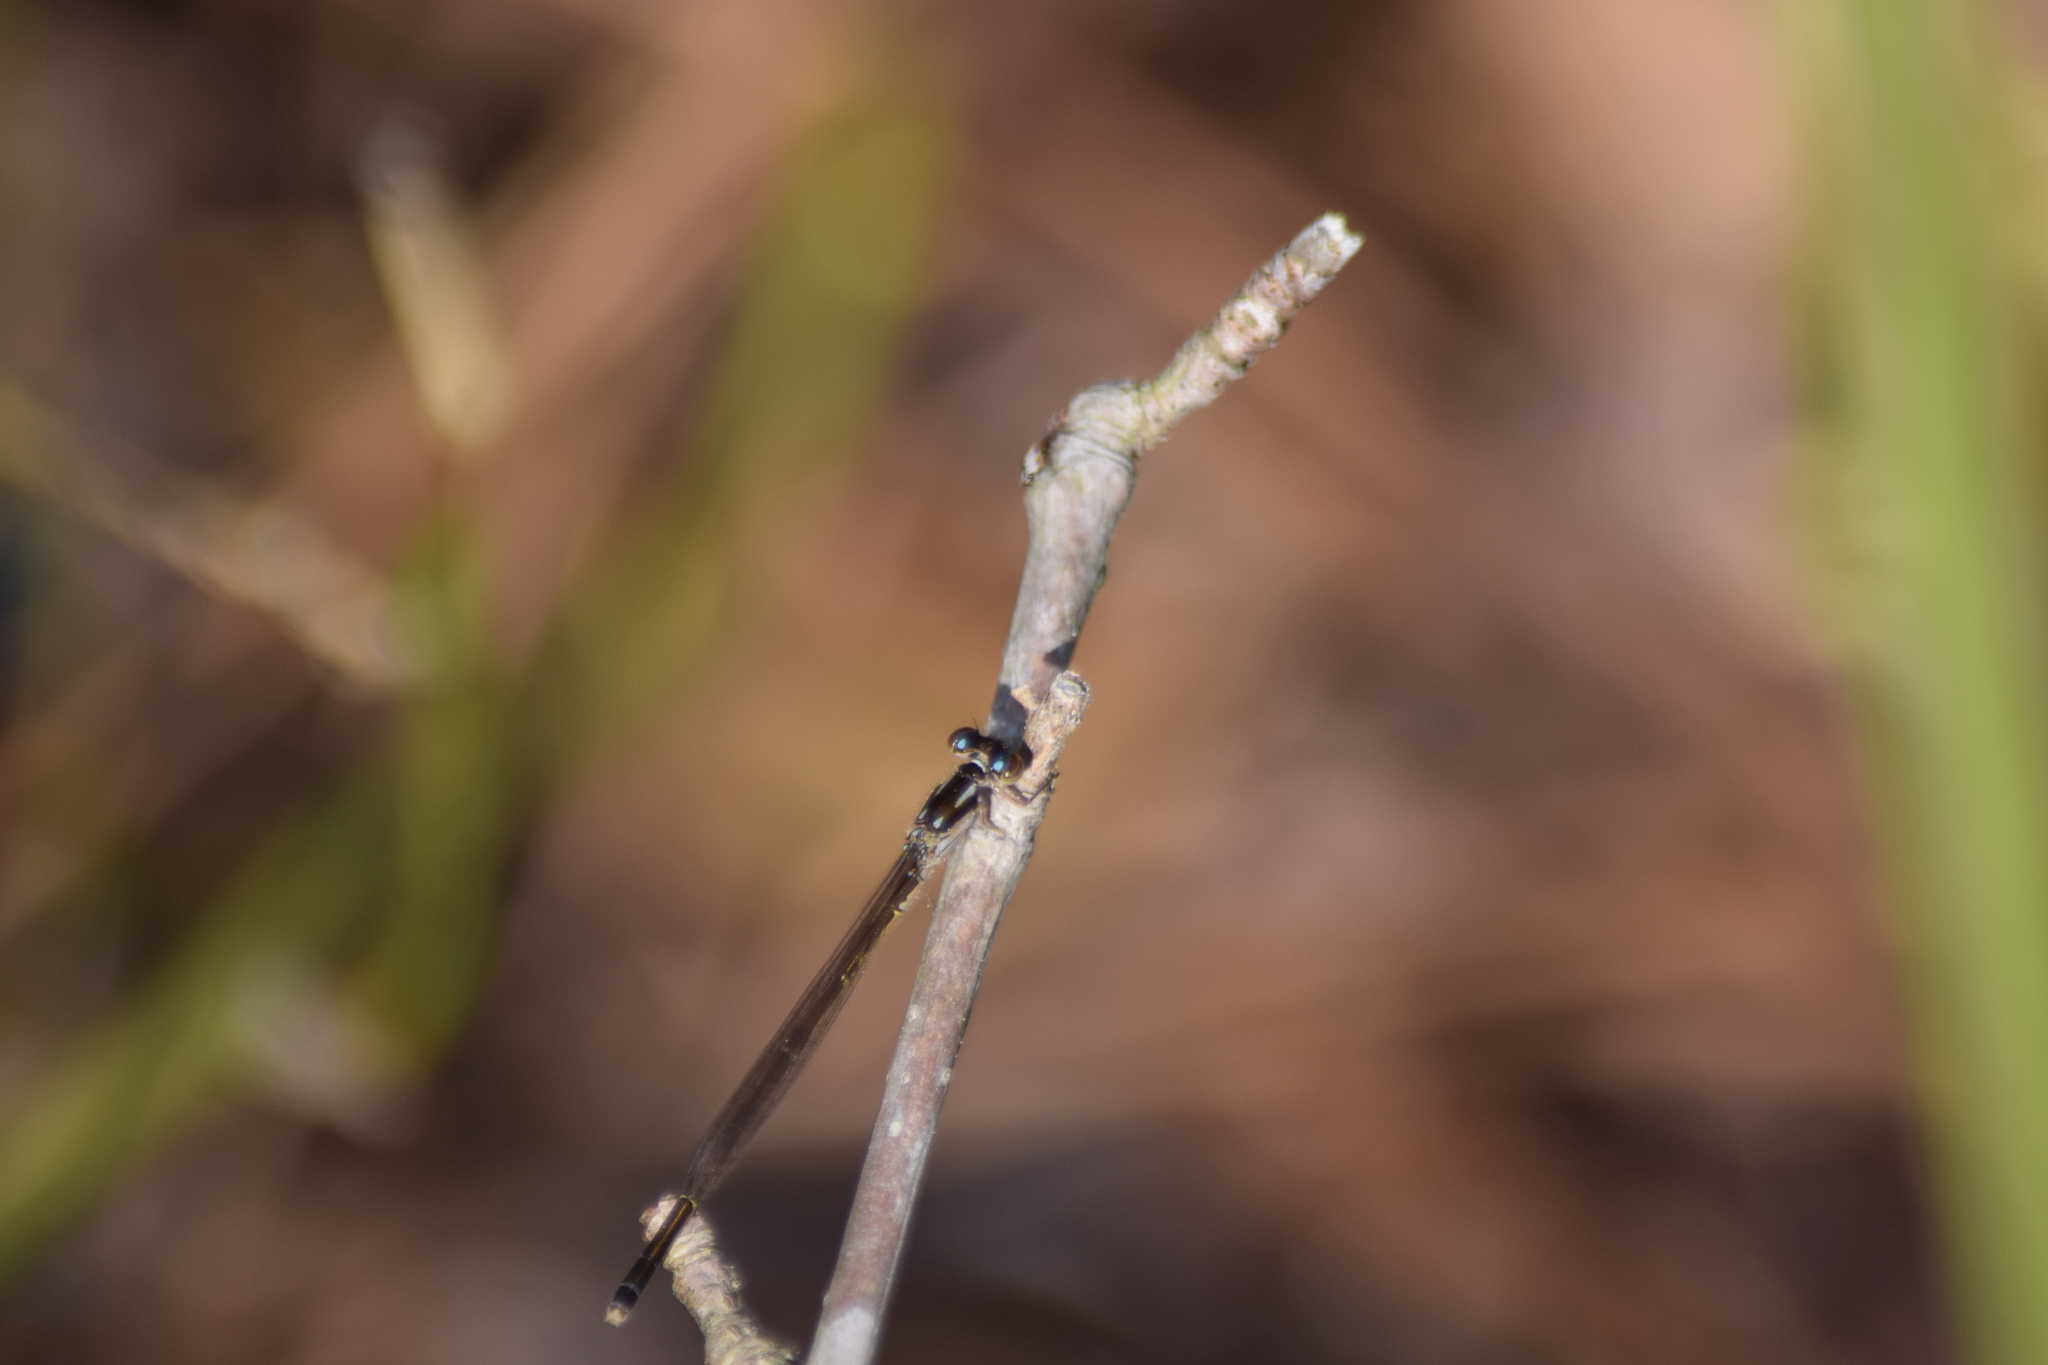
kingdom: Animalia
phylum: Arthropoda
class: Insecta
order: Odonata
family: Coenagrionidae
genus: Ischnura
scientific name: Ischnura posita
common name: Fragile forktail
